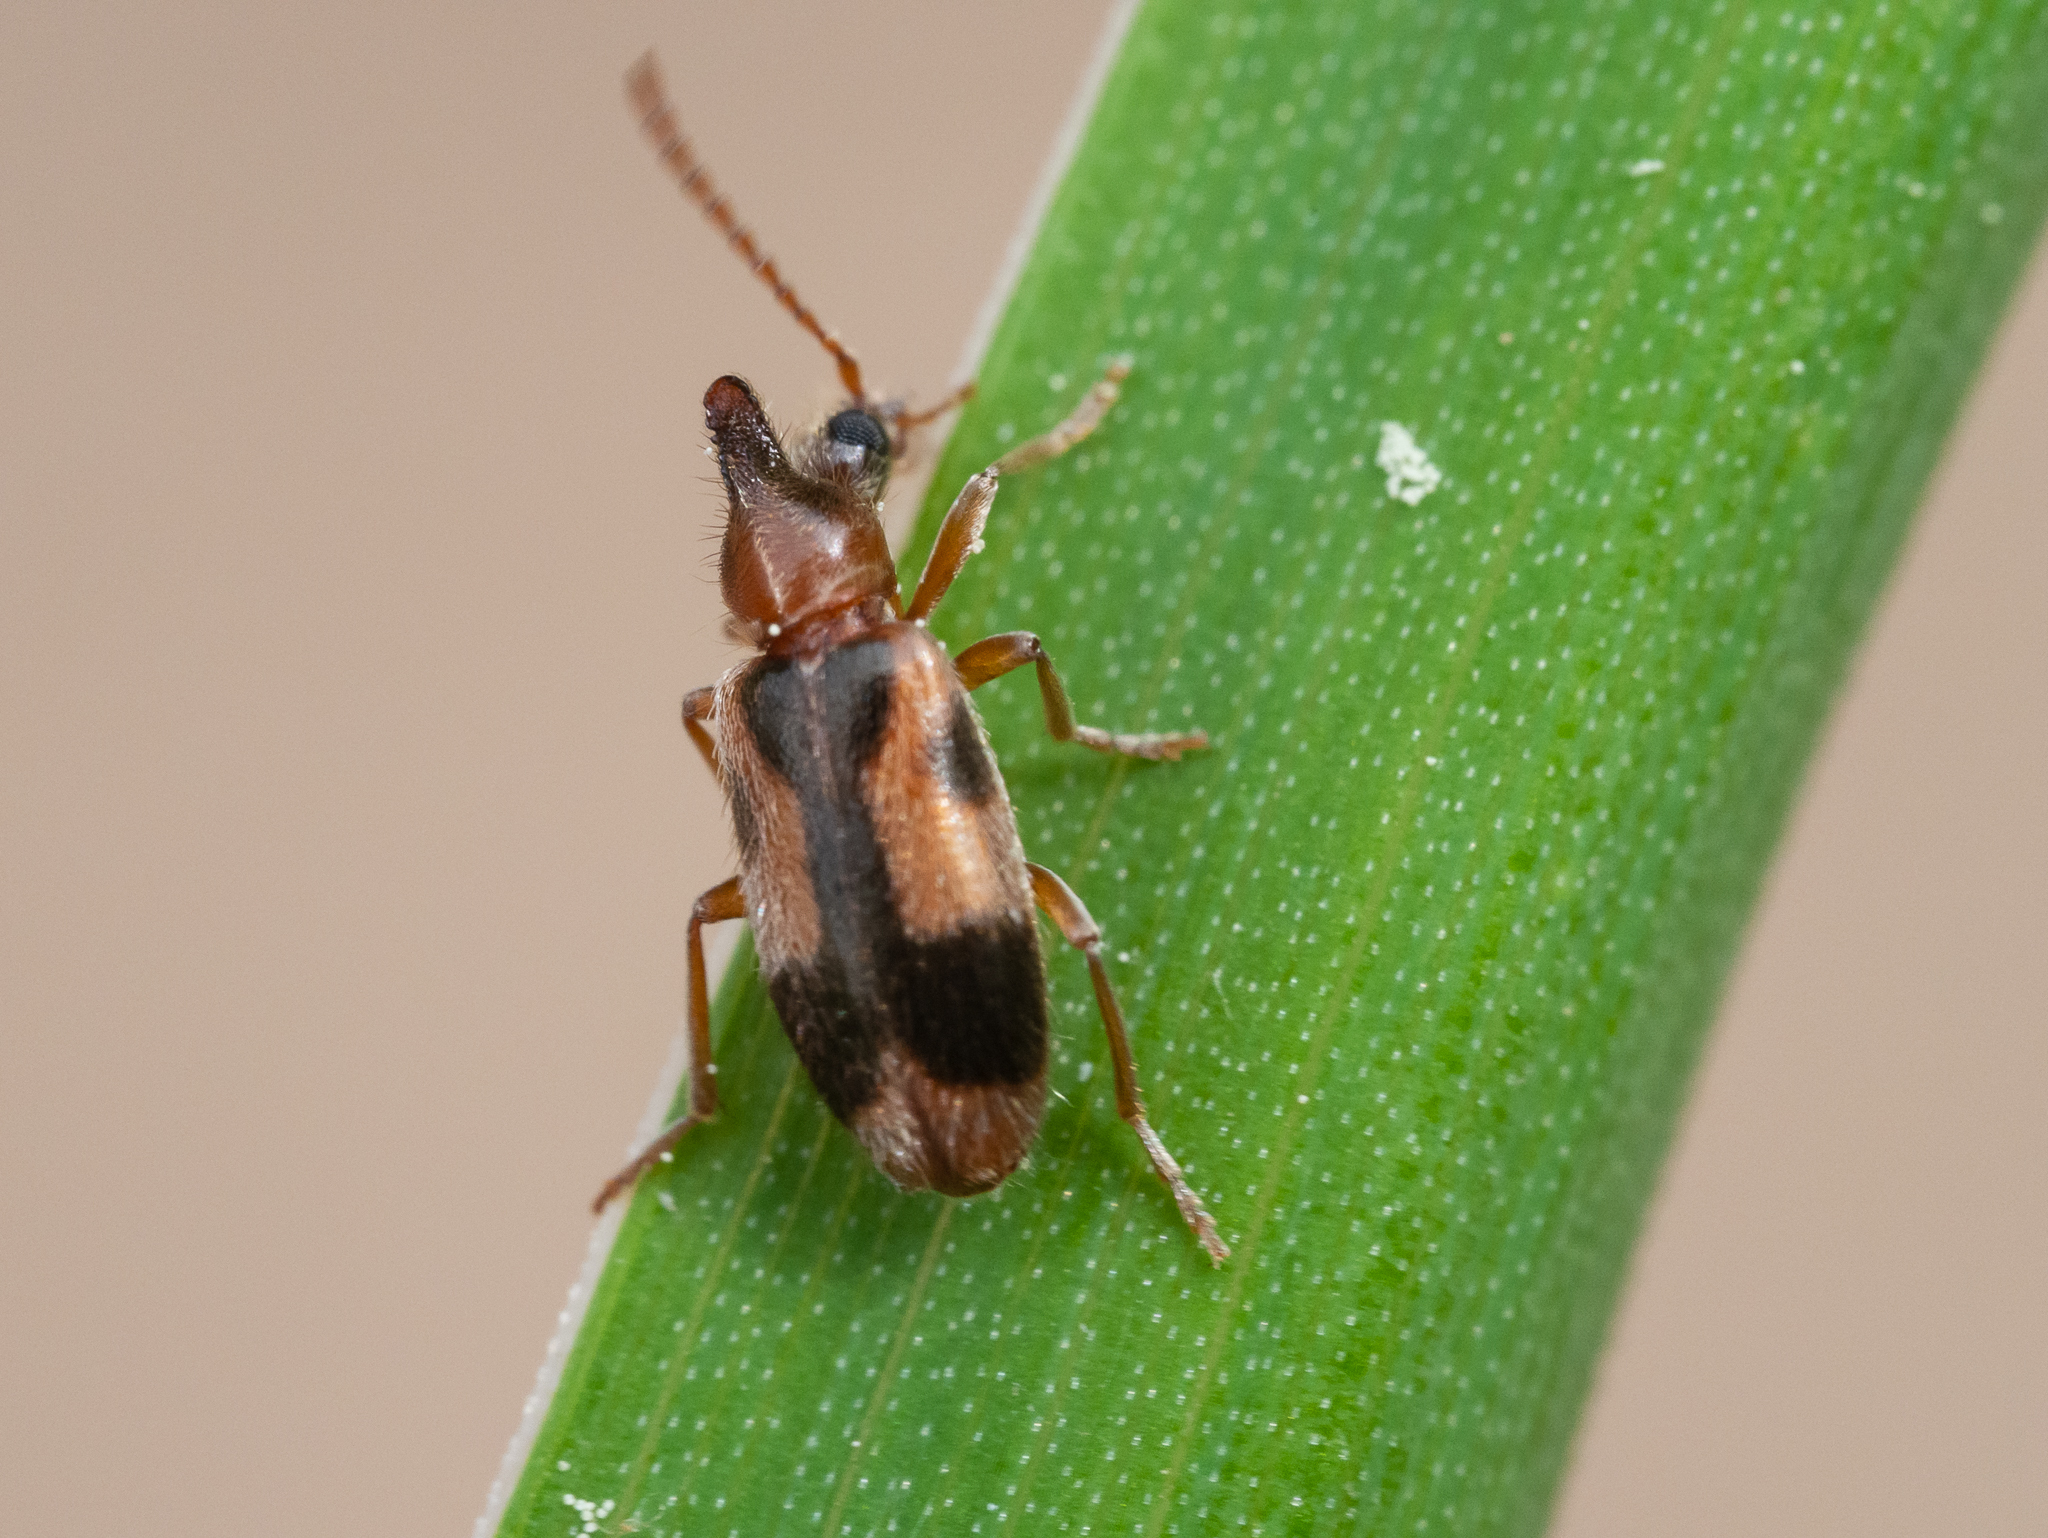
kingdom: Animalia
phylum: Arthropoda
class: Insecta
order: Coleoptera
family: Anthicidae
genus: Notoxus
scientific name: Notoxus monoceros
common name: Monoceros beetle
